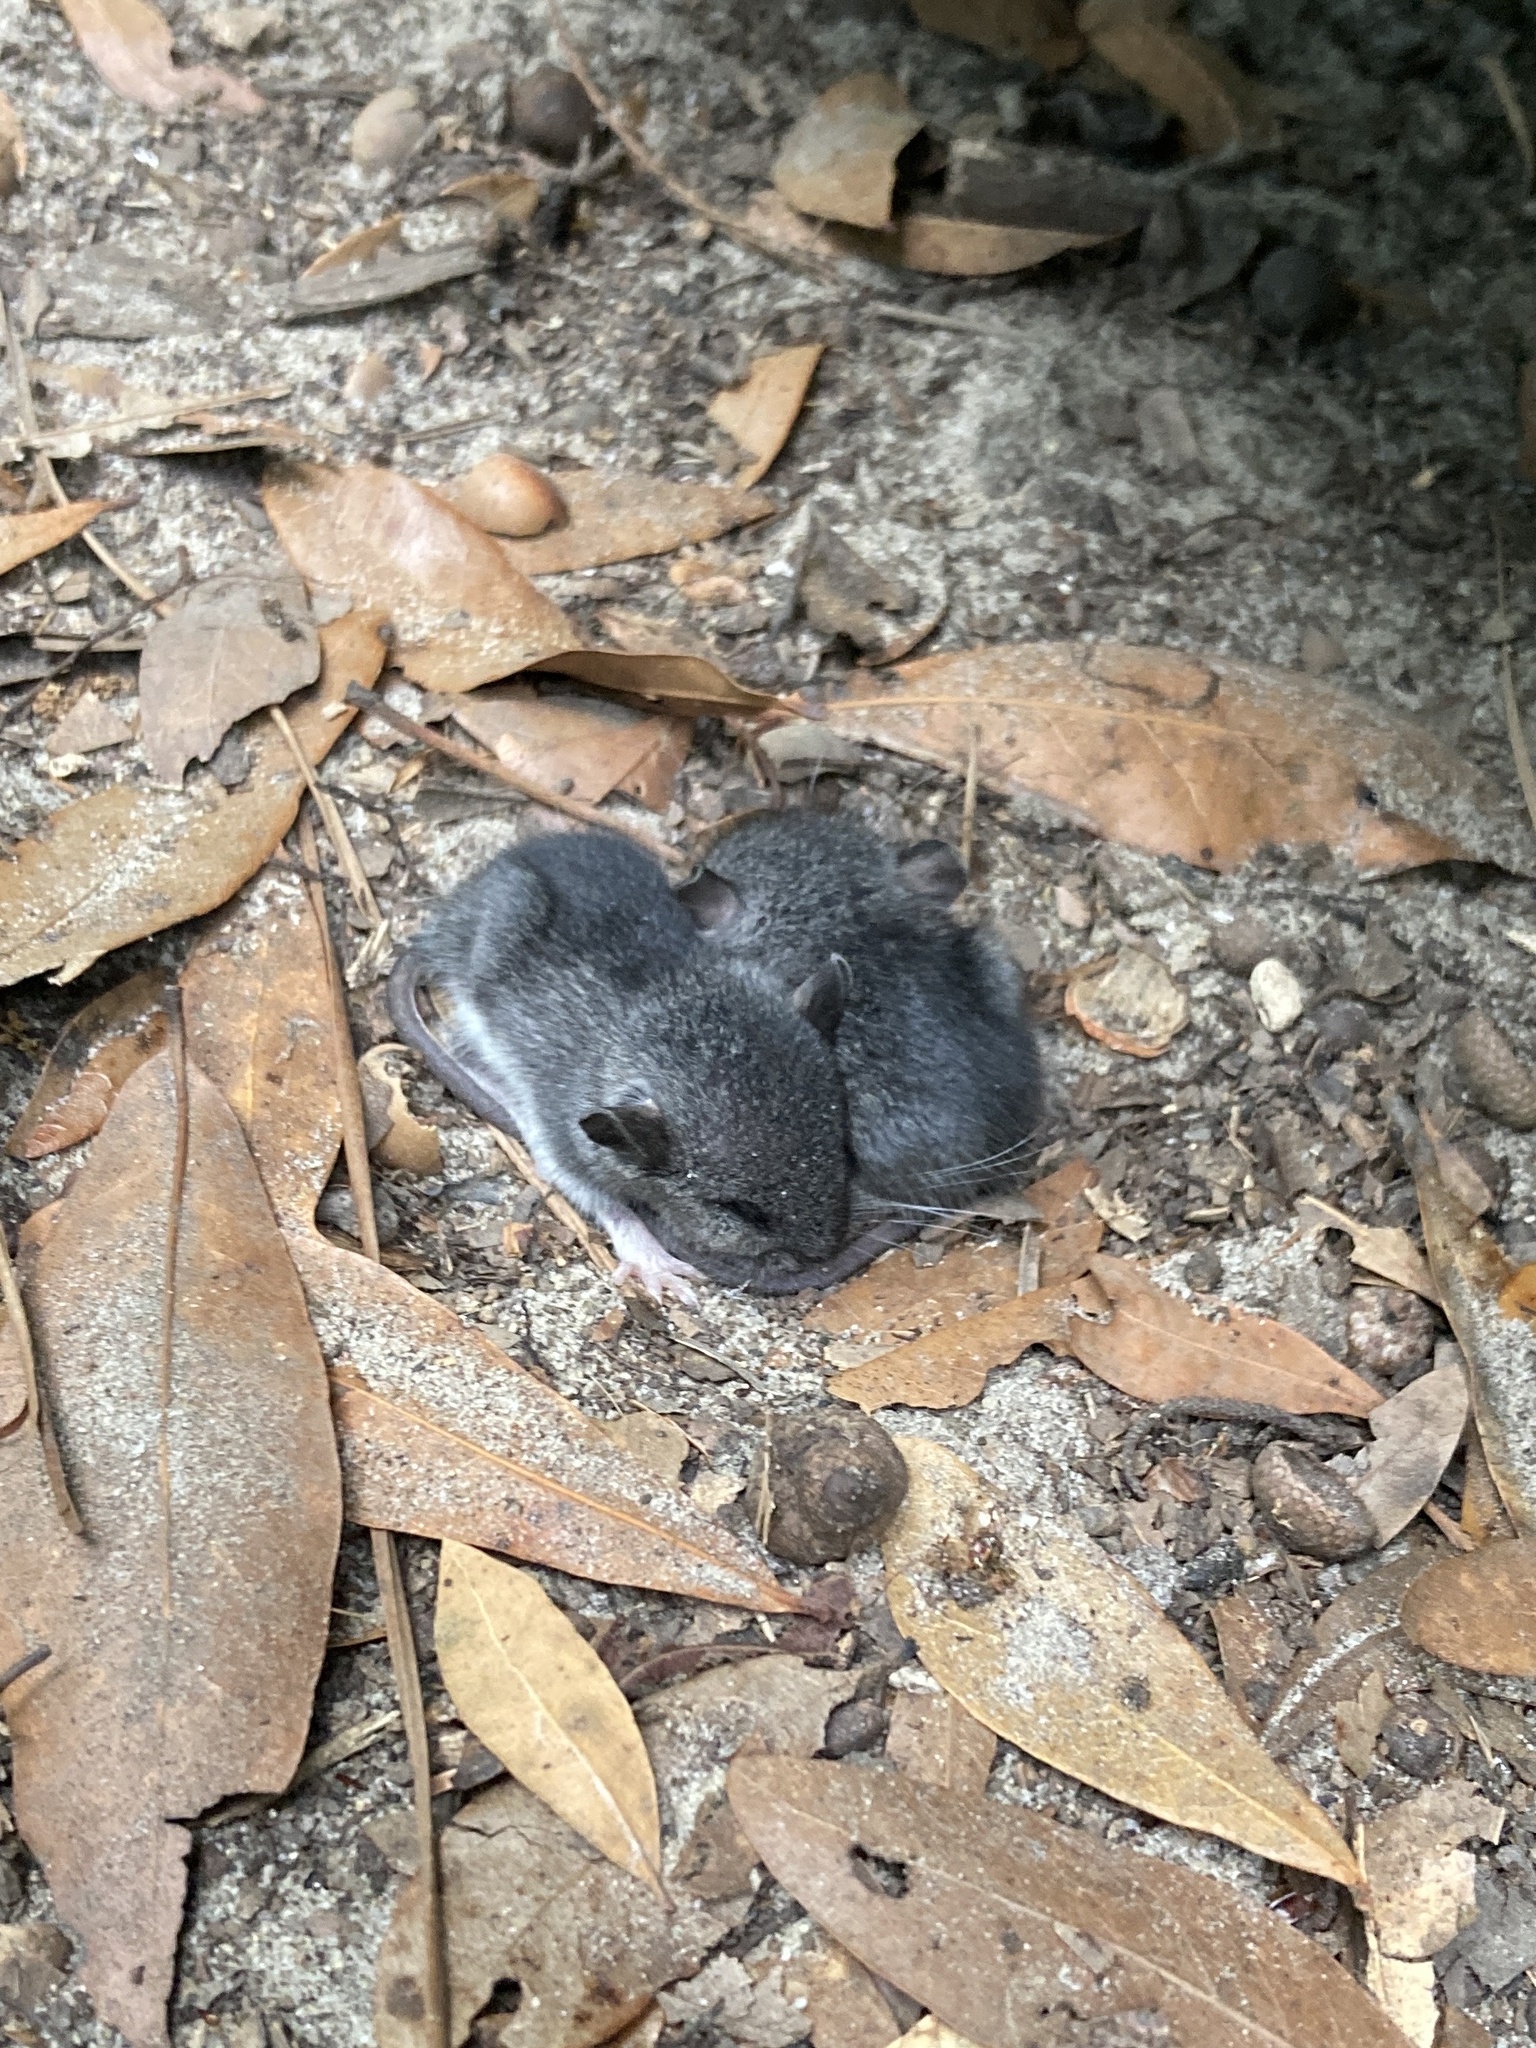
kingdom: Animalia
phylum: Chordata
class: Mammalia
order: Rodentia
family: Cricetidae
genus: Peromyscus
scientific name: Peromyscus gossypinus
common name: Cotton deermouse
